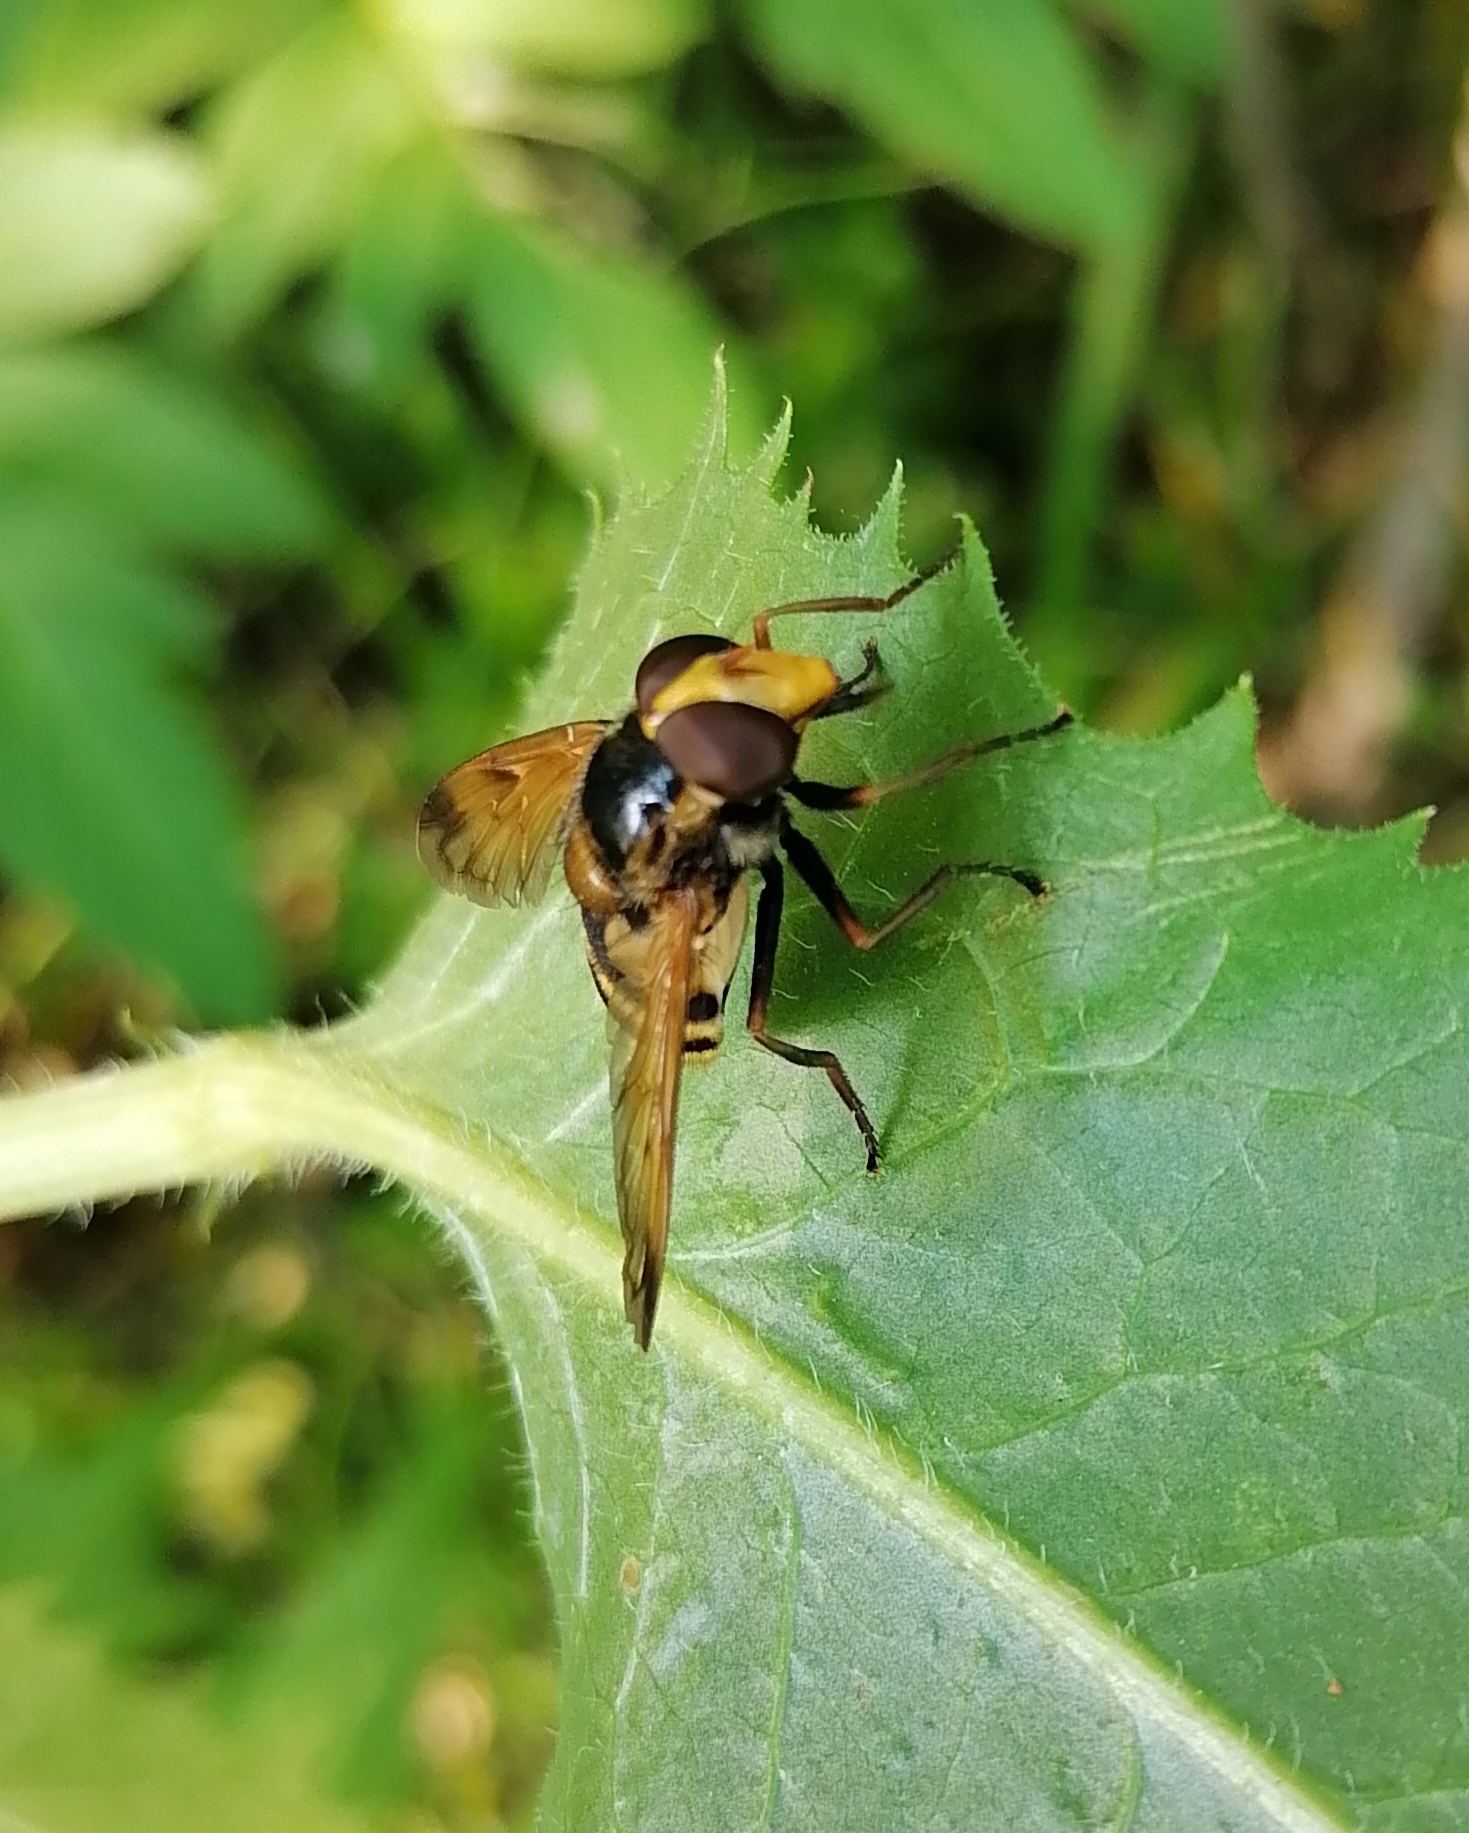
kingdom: Animalia
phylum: Arthropoda
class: Insecta
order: Diptera
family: Syrphidae
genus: Volucella
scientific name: Volucella inanis
